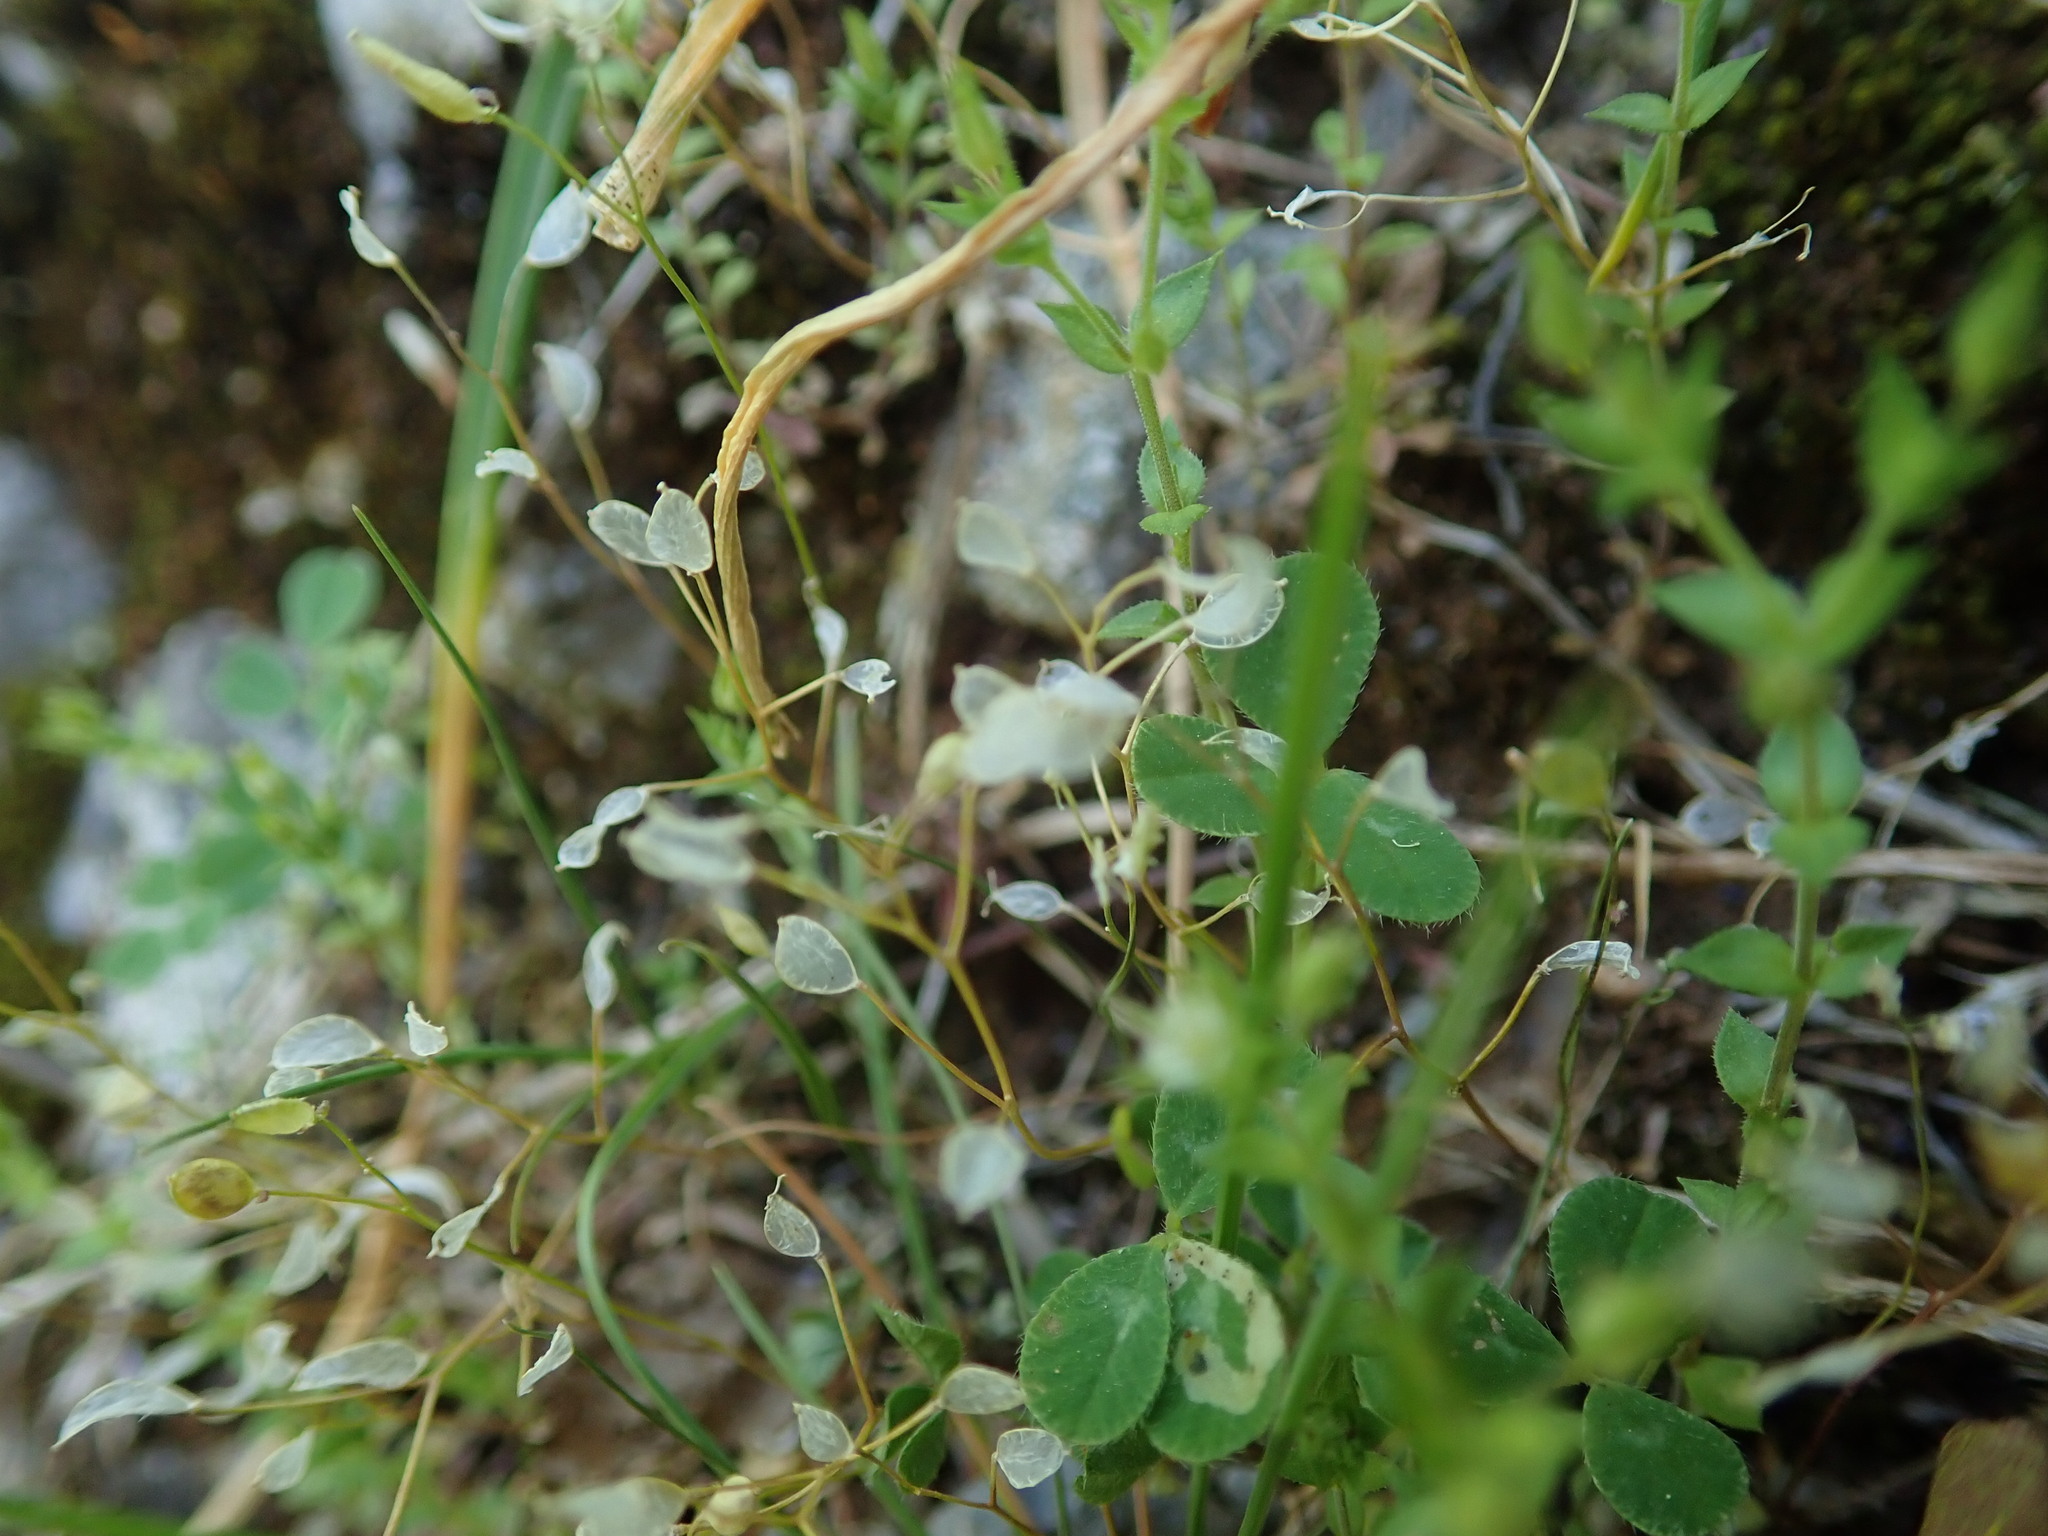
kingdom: Plantae
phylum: Tracheophyta
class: Magnoliopsida
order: Brassicales
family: Brassicaceae
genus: Draba
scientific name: Draba verna
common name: Spring draba
